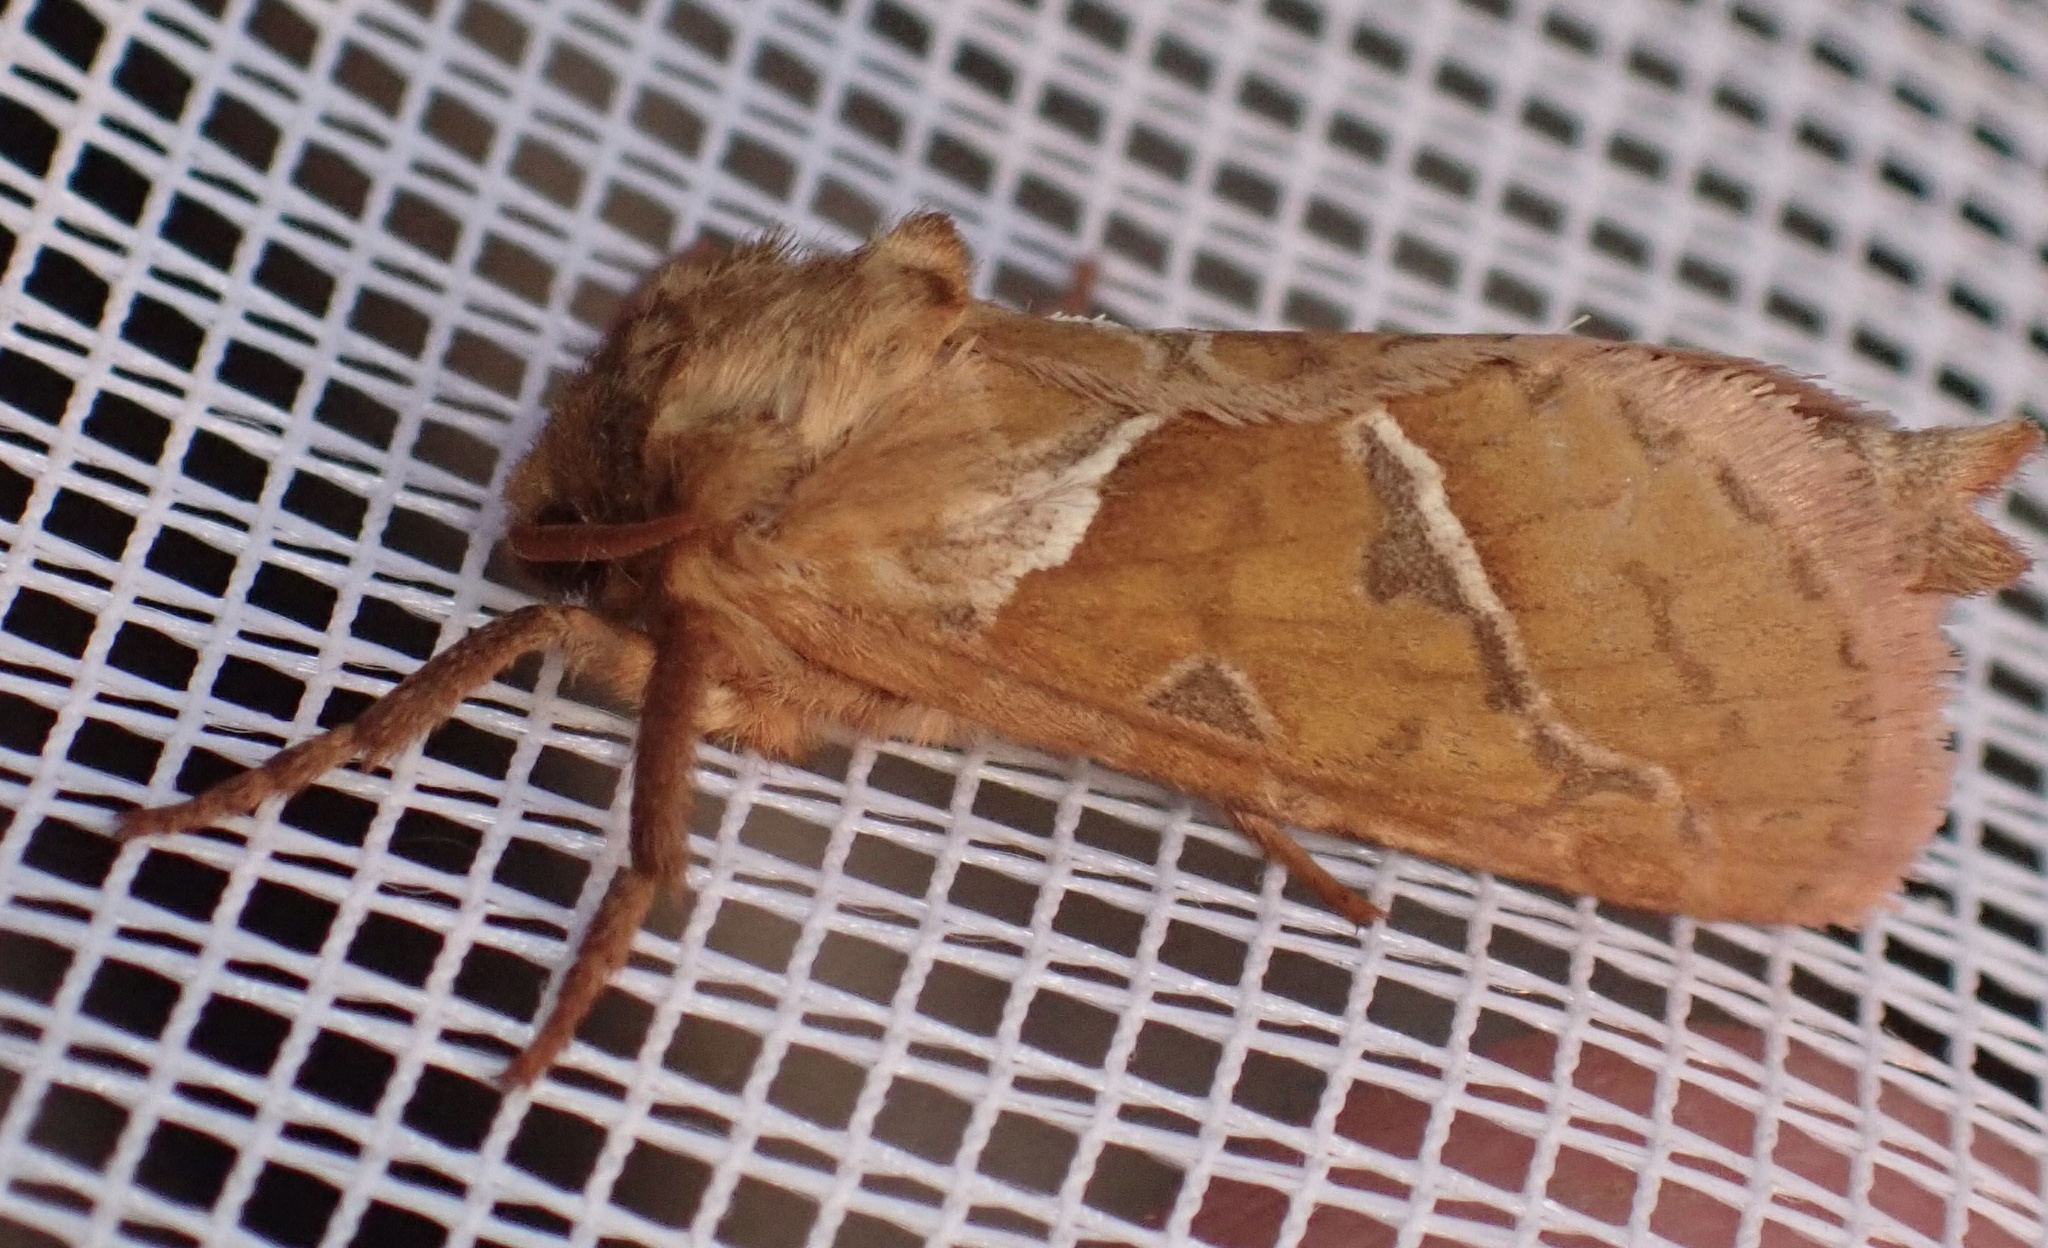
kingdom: Animalia
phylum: Arthropoda
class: Insecta
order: Lepidoptera
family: Hepialidae
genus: Triodia
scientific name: Triodia sylvina
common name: Orange swift
